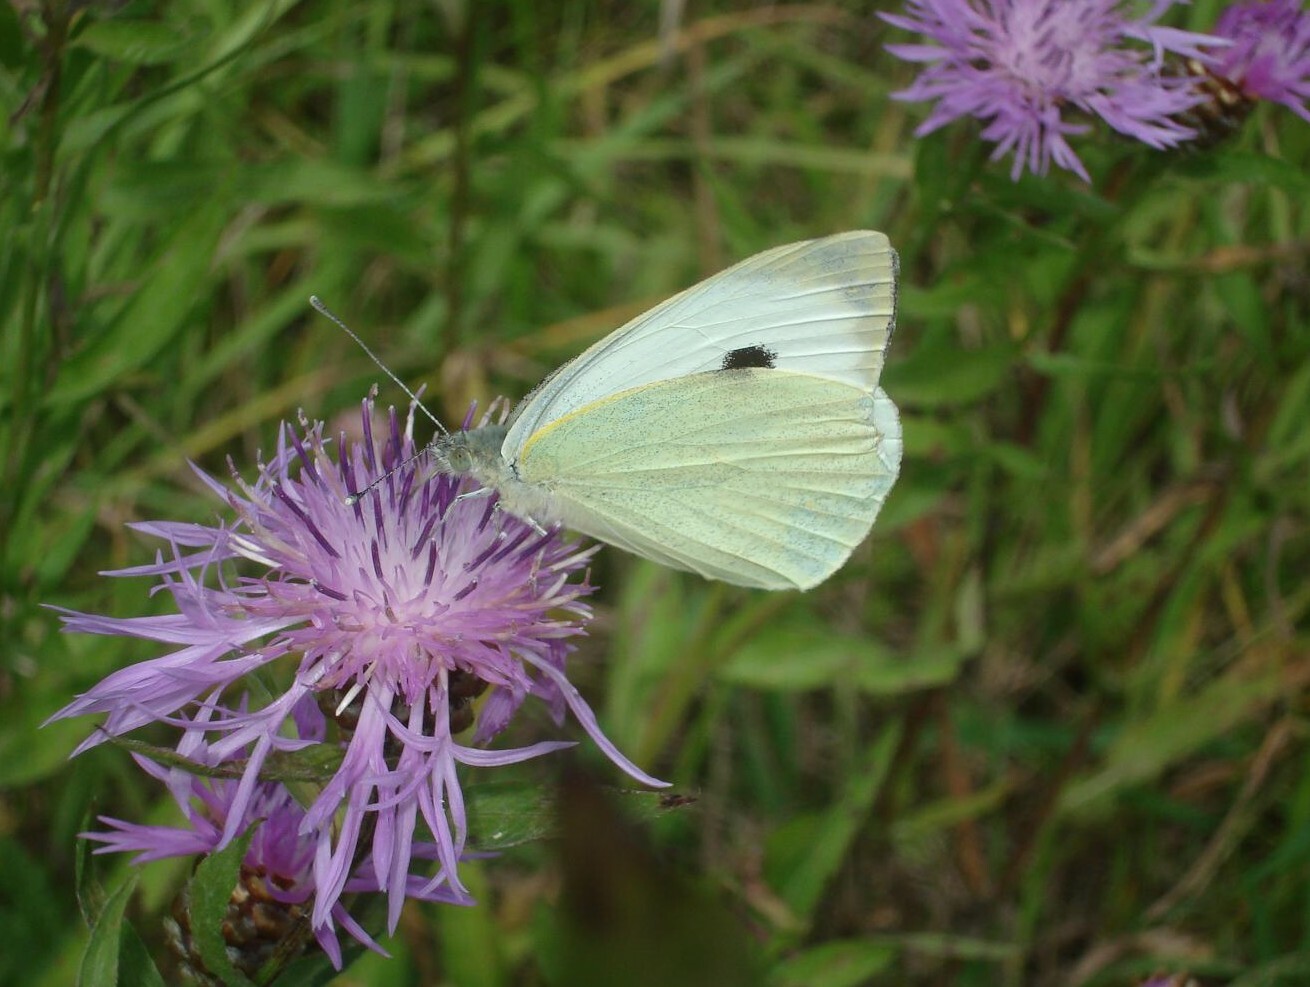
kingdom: Animalia
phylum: Arthropoda
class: Insecta
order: Lepidoptera
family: Pieridae
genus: Pieris
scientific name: Pieris brassicae
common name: Large white
